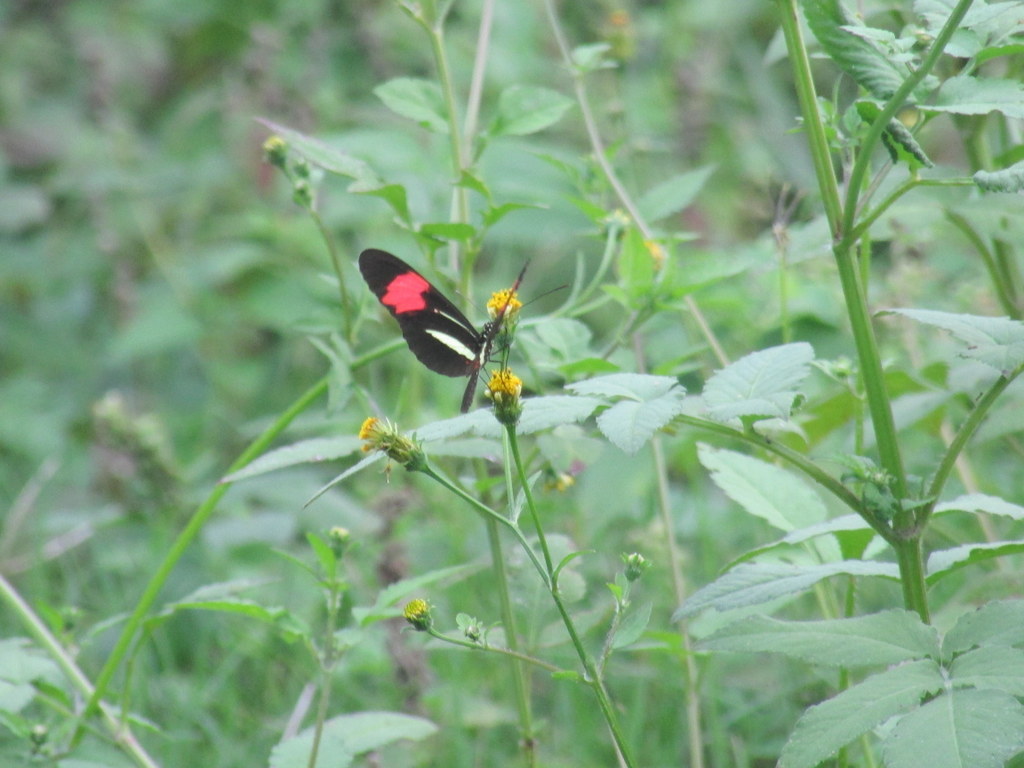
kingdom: Animalia
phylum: Arthropoda
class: Insecta
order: Lepidoptera
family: Nymphalidae
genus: Heliconius
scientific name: Heliconius erato
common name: Common patch longwing
